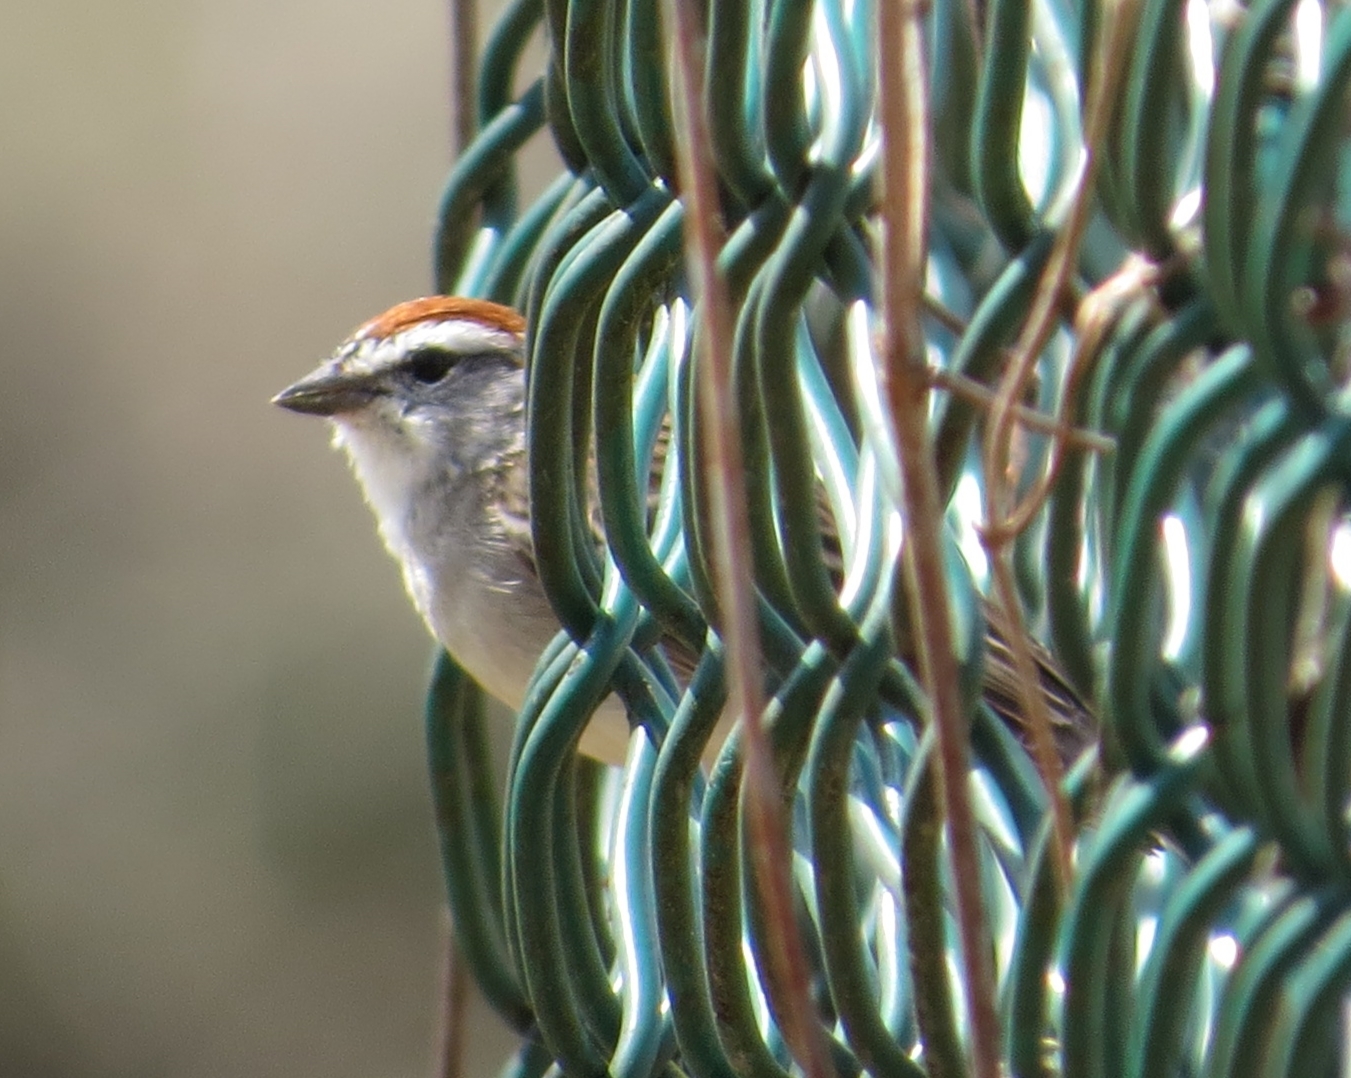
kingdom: Animalia
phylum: Chordata
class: Aves
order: Passeriformes
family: Passerellidae
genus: Spizella
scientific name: Spizella passerina
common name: Chipping sparrow
